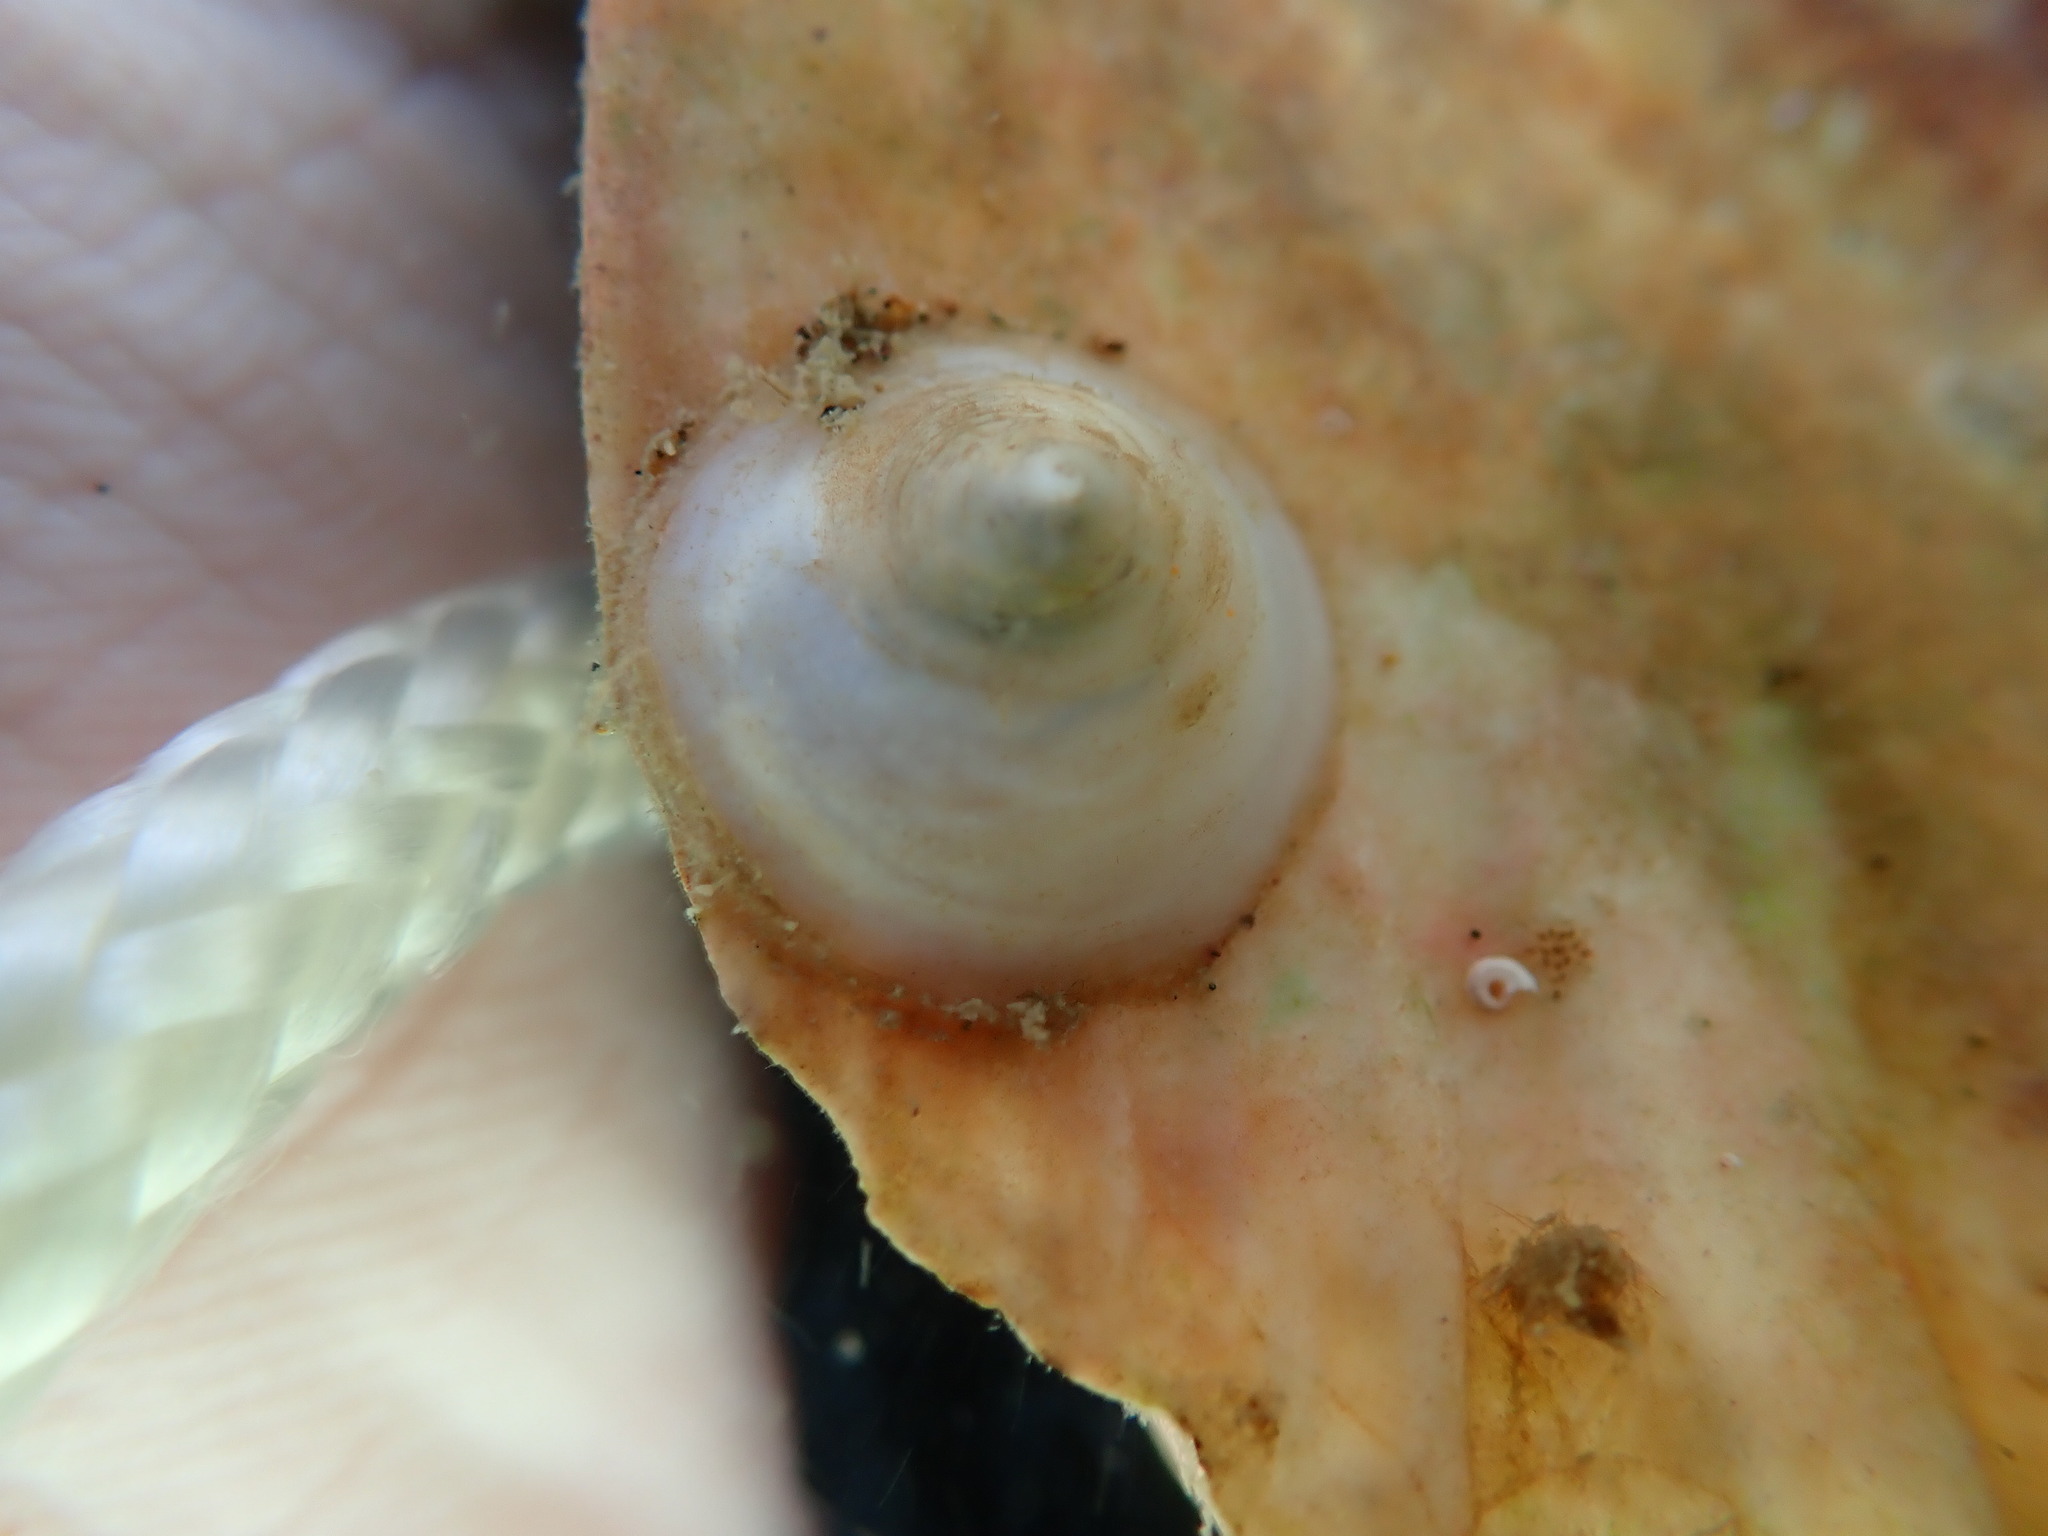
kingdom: Animalia
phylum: Mollusca
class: Gastropoda
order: Littorinimorpha
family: Calyptraeidae
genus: Sigapatella
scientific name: Sigapatella tenuis
